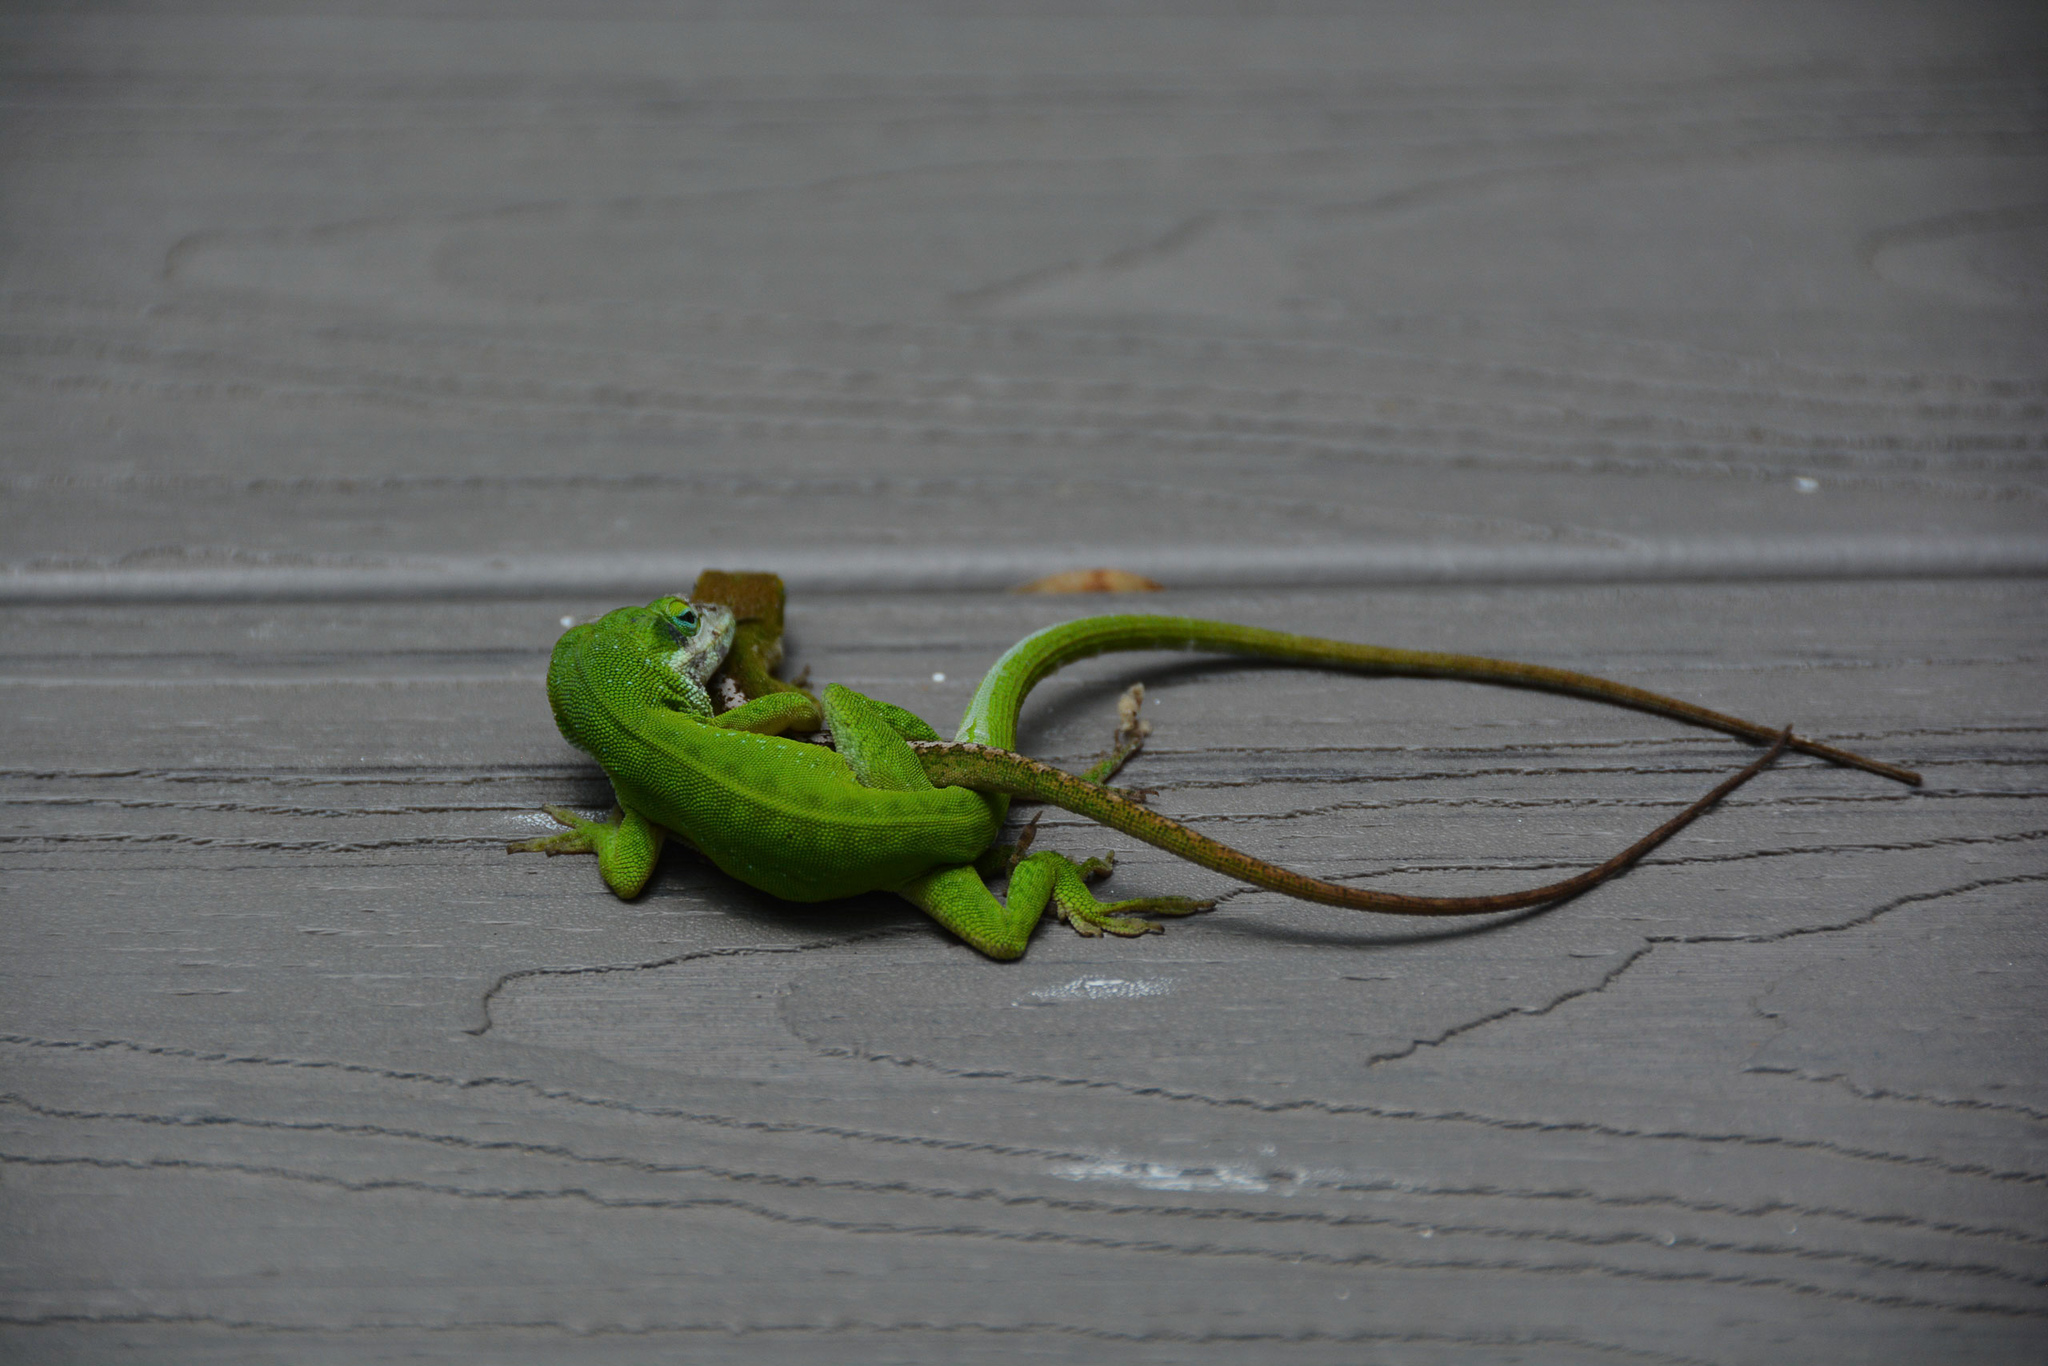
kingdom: Animalia
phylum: Chordata
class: Squamata
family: Dactyloidae
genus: Anolis
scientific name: Anolis carolinensis
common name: Green anole
